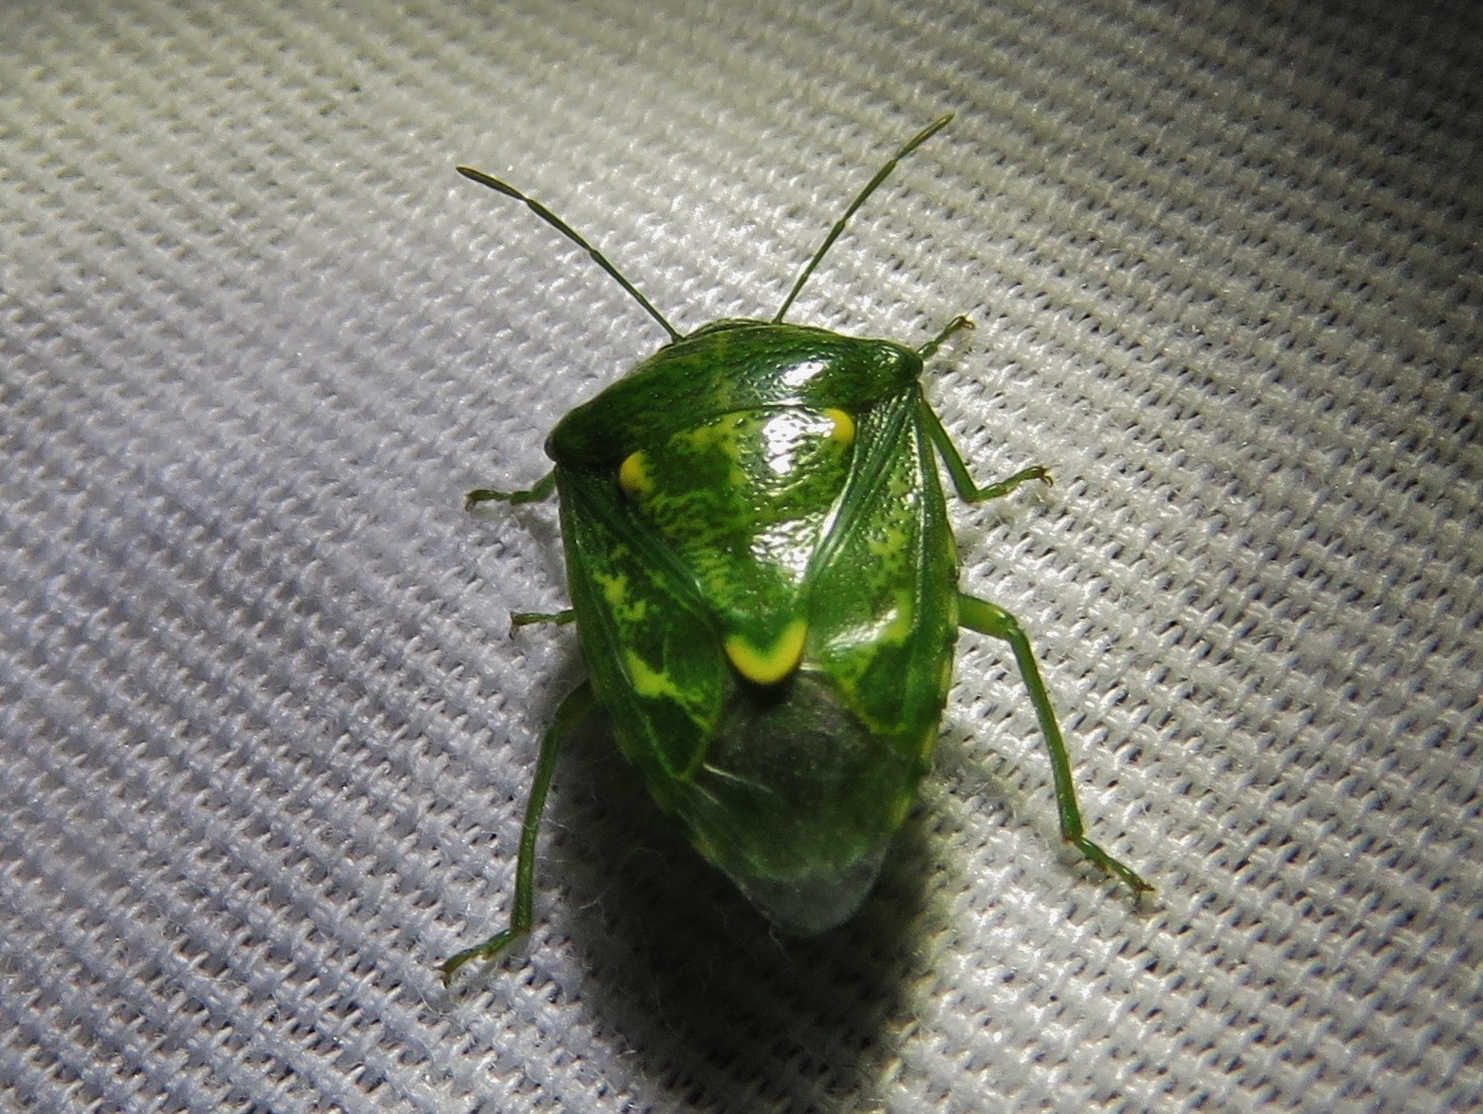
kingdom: Animalia
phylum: Arthropoda
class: Insecta
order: Hemiptera
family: Pentatomidae
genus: Banasa
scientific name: Banasa euchlora
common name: Cedar berry bug
